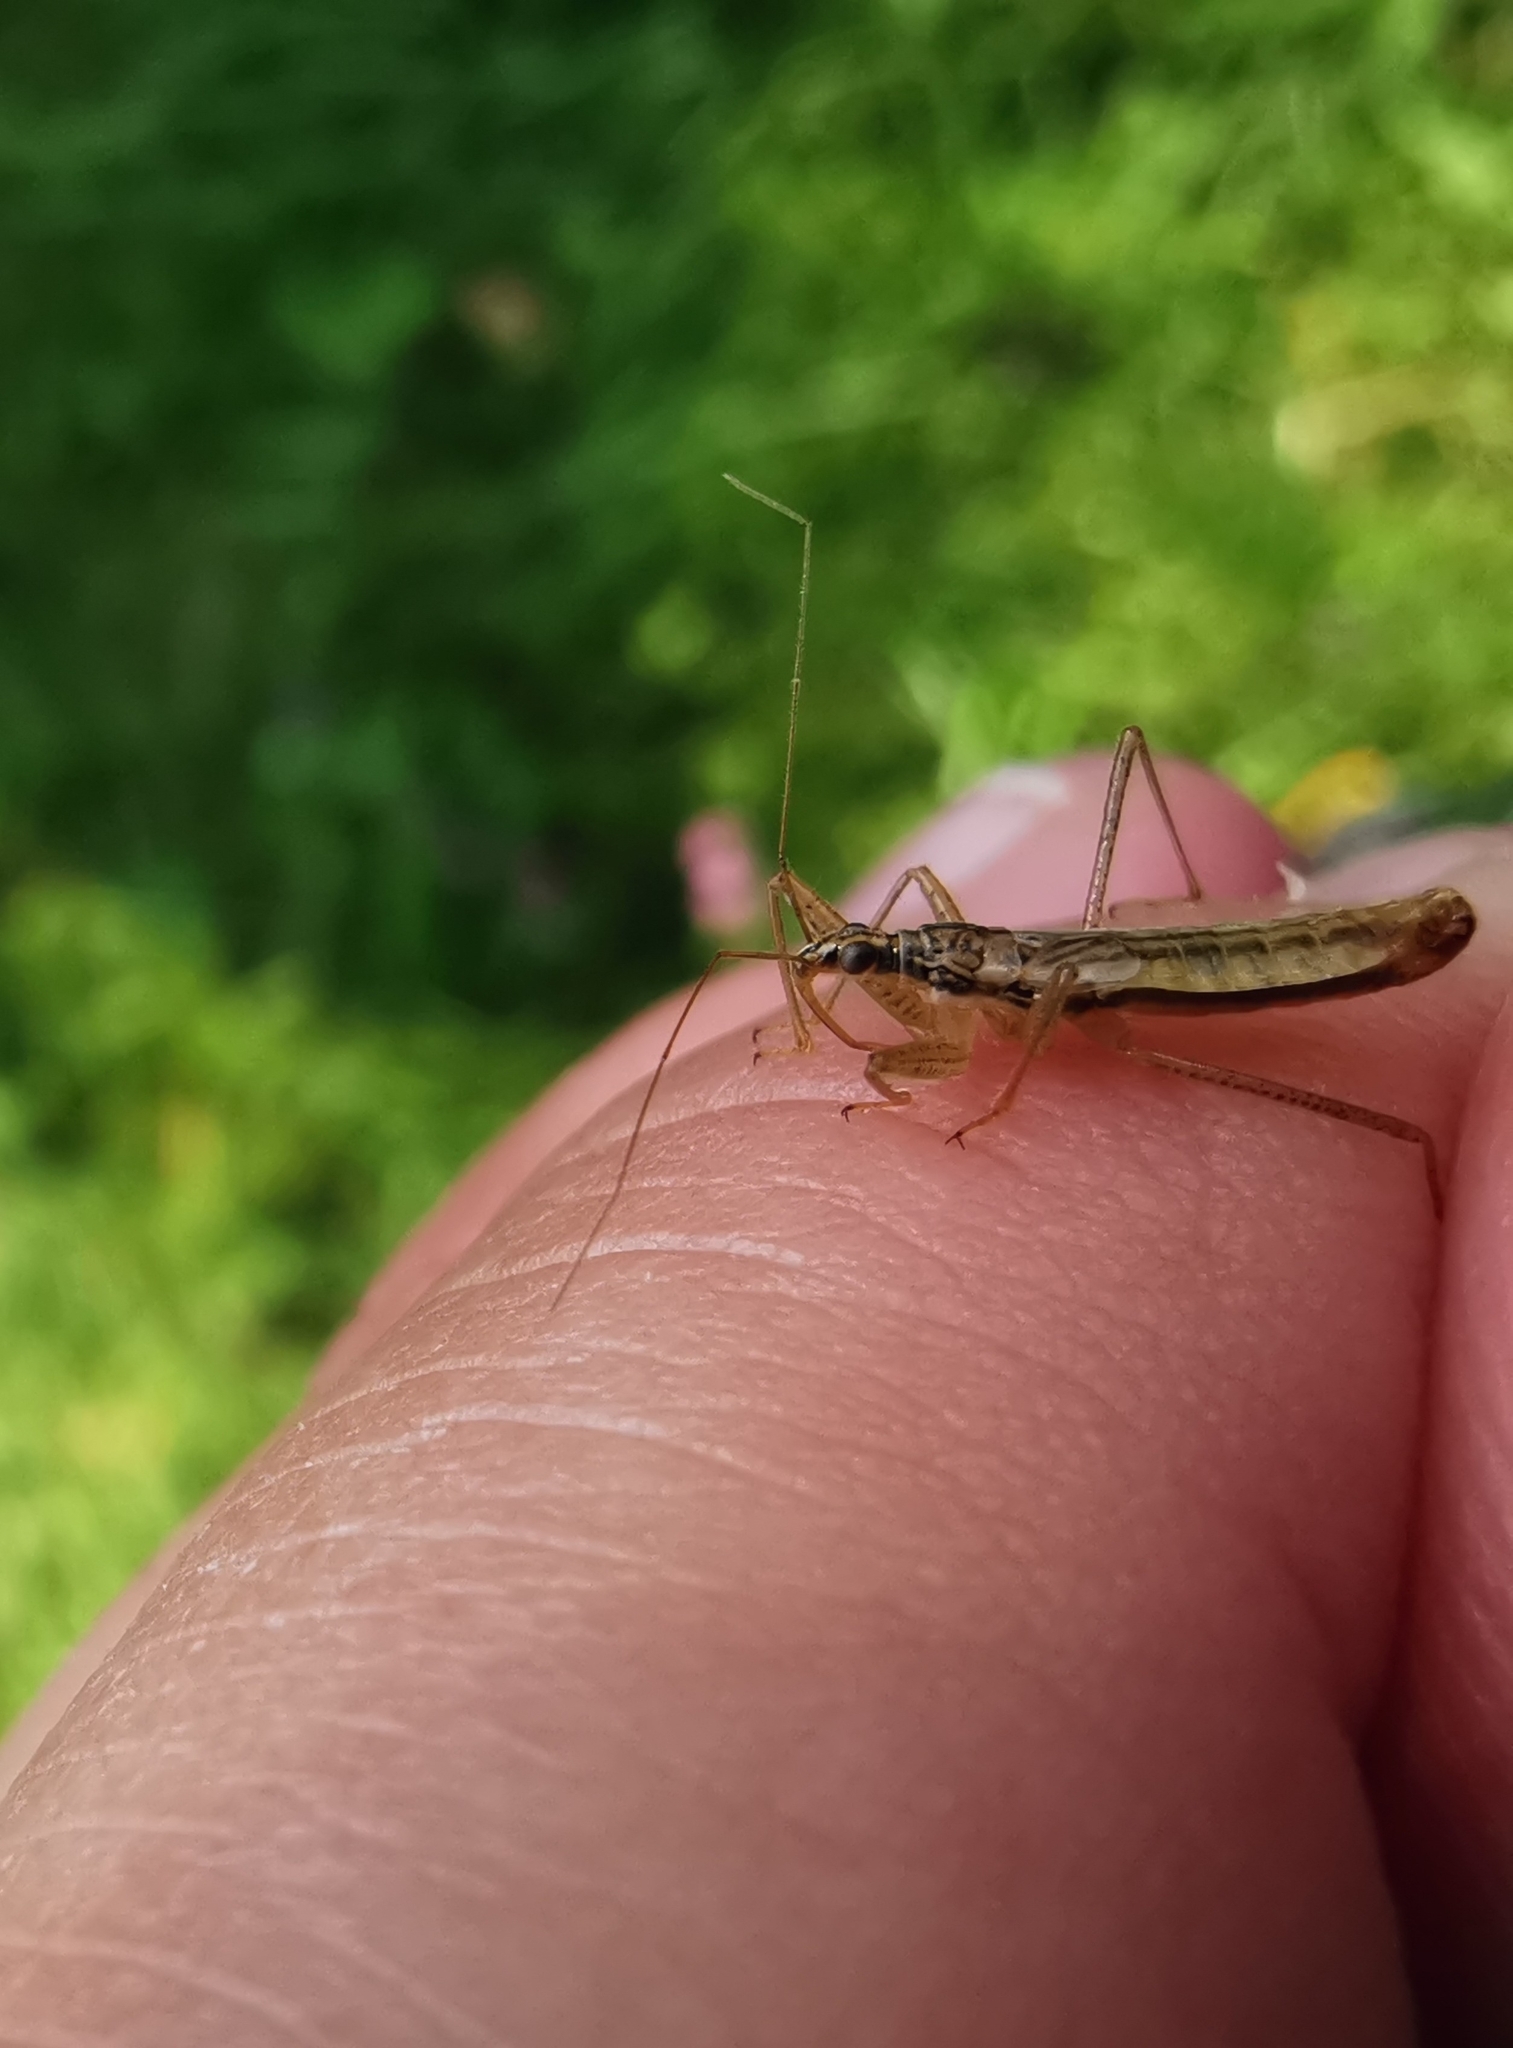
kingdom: Animalia
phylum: Arthropoda
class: Insecta
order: Hemiptera
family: Nabidae
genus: Nabis
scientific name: Nabis limbatus
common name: Marsh damselbug
